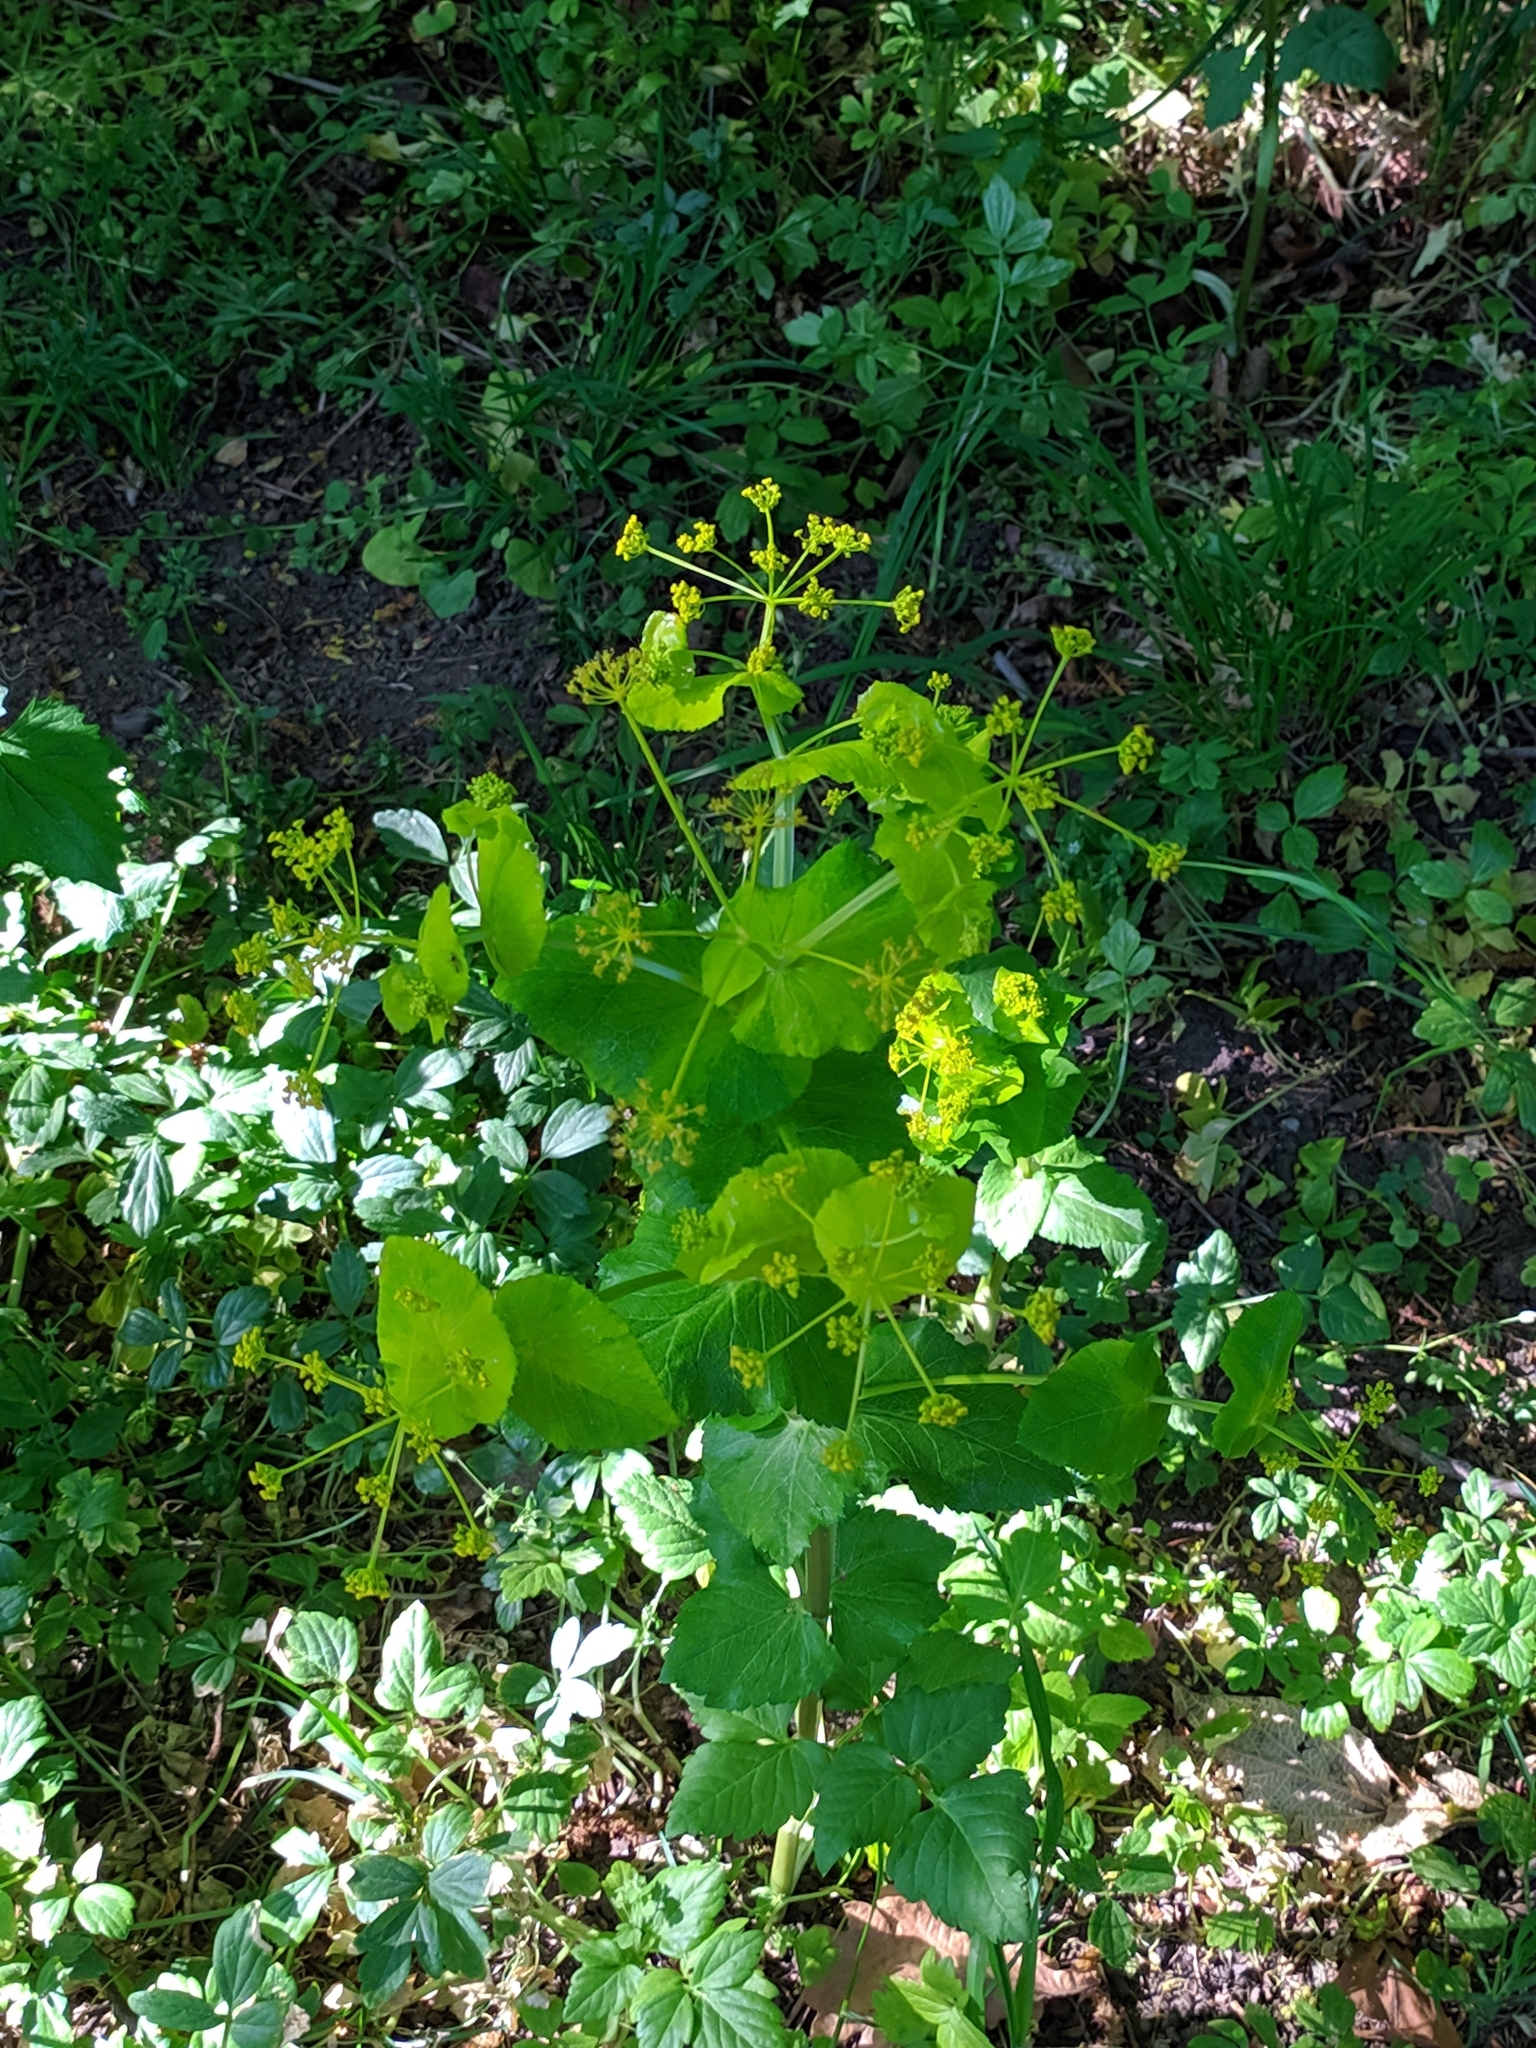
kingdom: Plantae
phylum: Tracheophyta
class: Magnoliopsida
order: Apiales
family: Apiaceae
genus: Smyrnium
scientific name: Smyrnium perfoliatum
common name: Perfoliate alexanders
